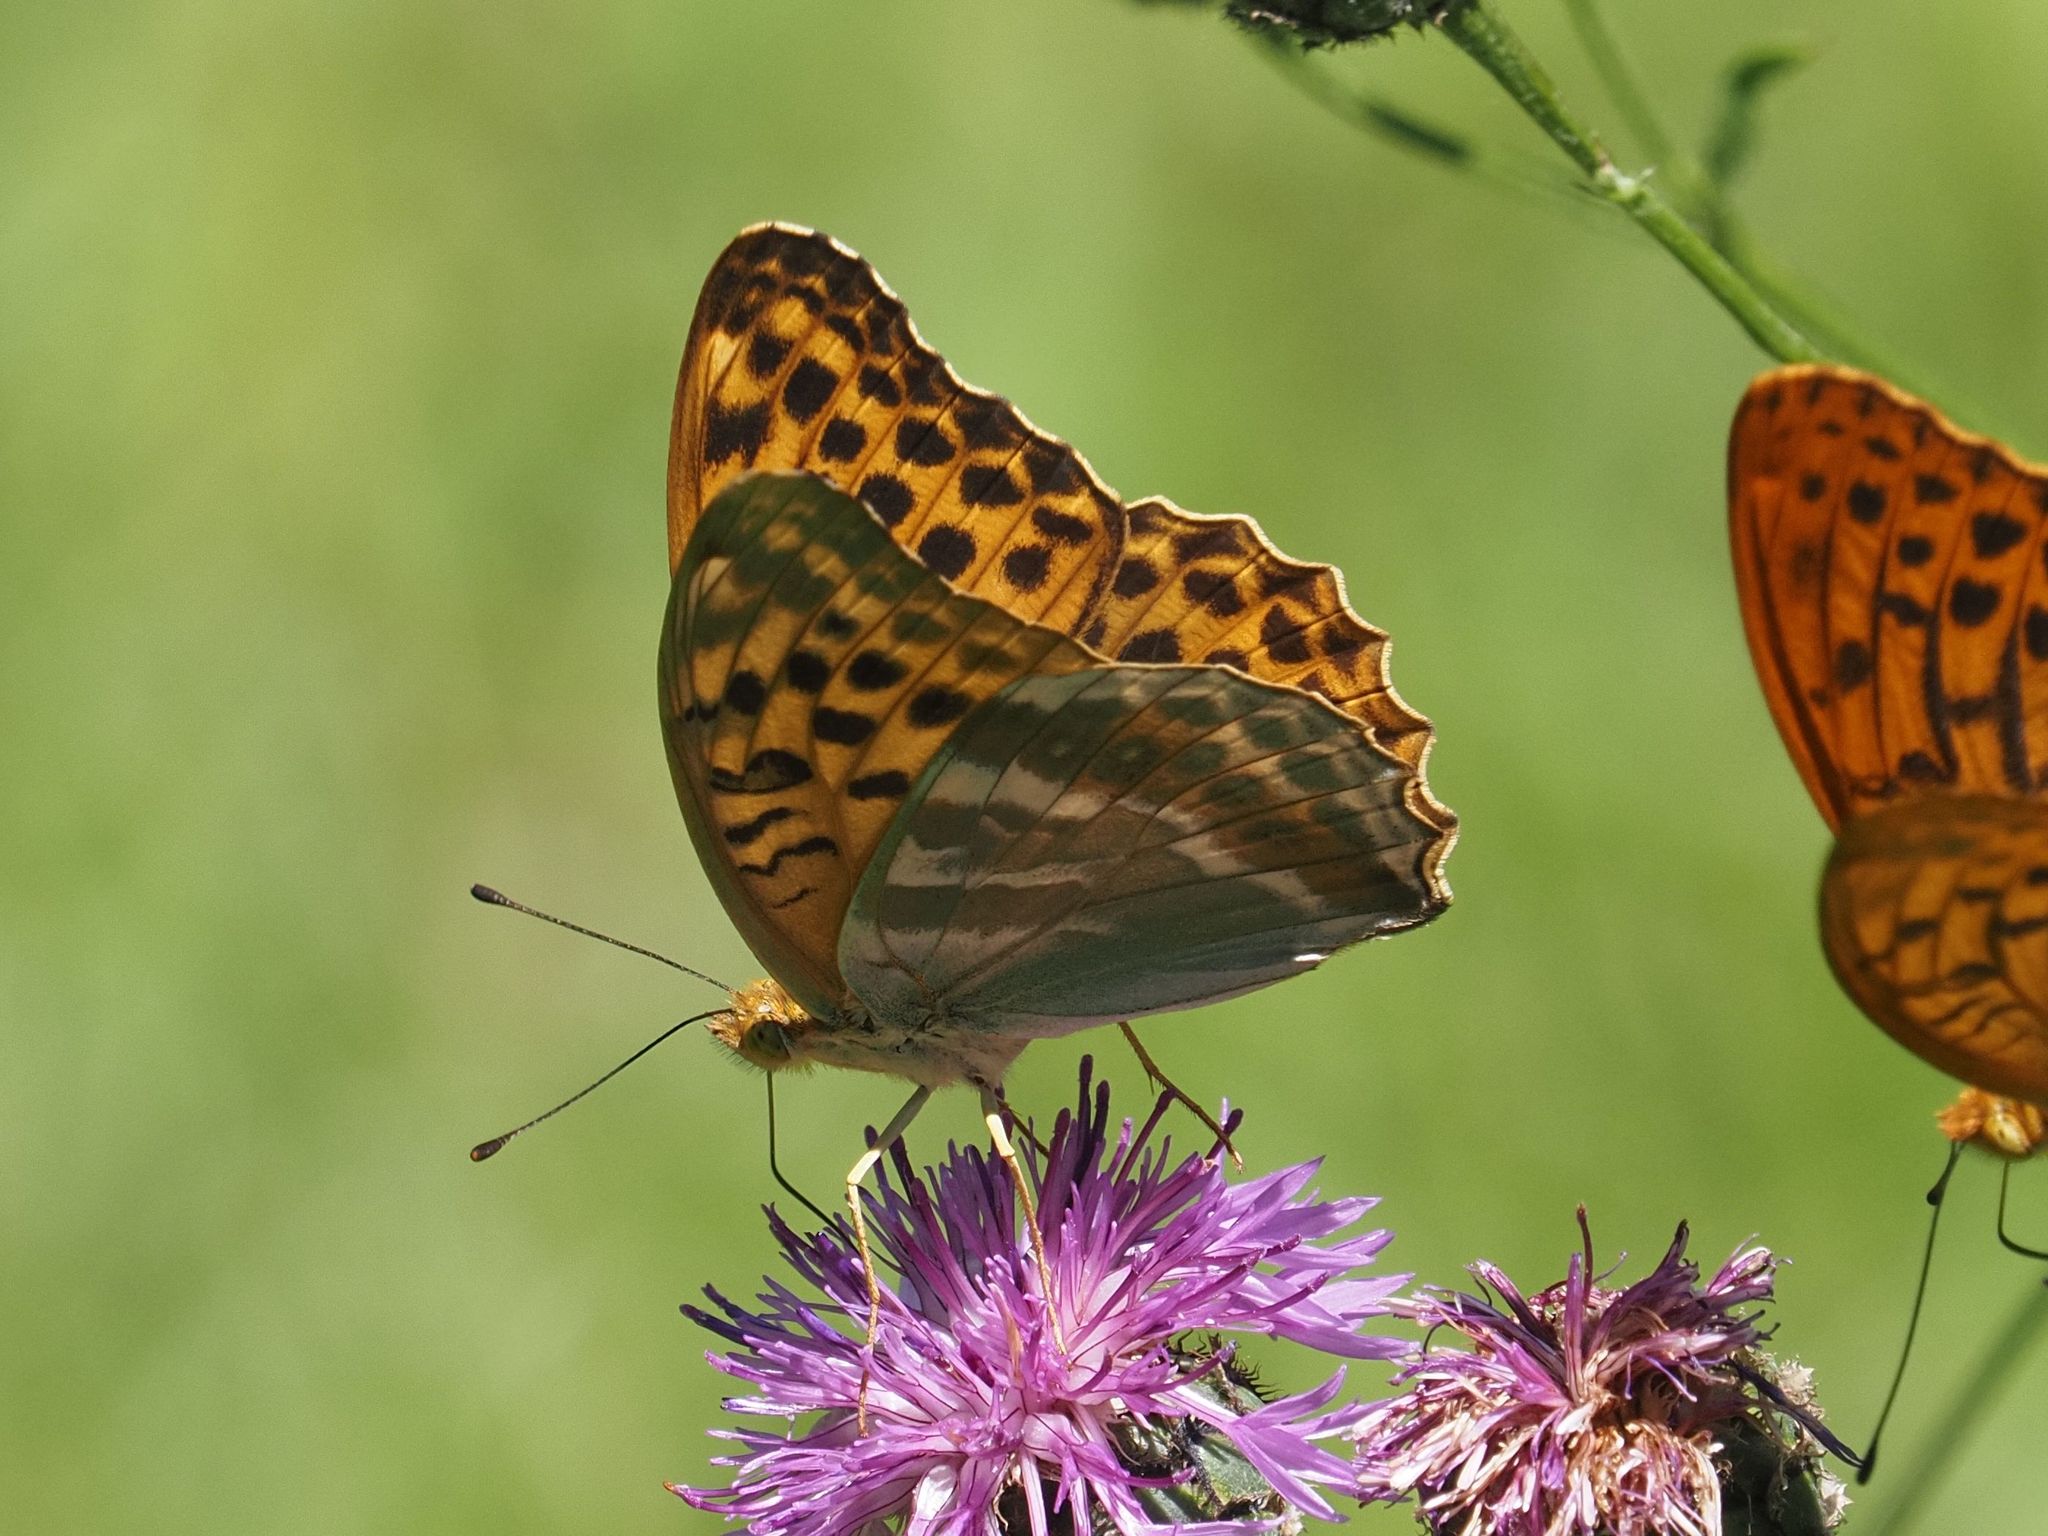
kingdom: Animalia
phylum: Arthropoda
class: Insecta
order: Lepidoptera
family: Nymphalidae
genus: Argynnis
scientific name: Argynnis paphia
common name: Silver-washed fritillary
